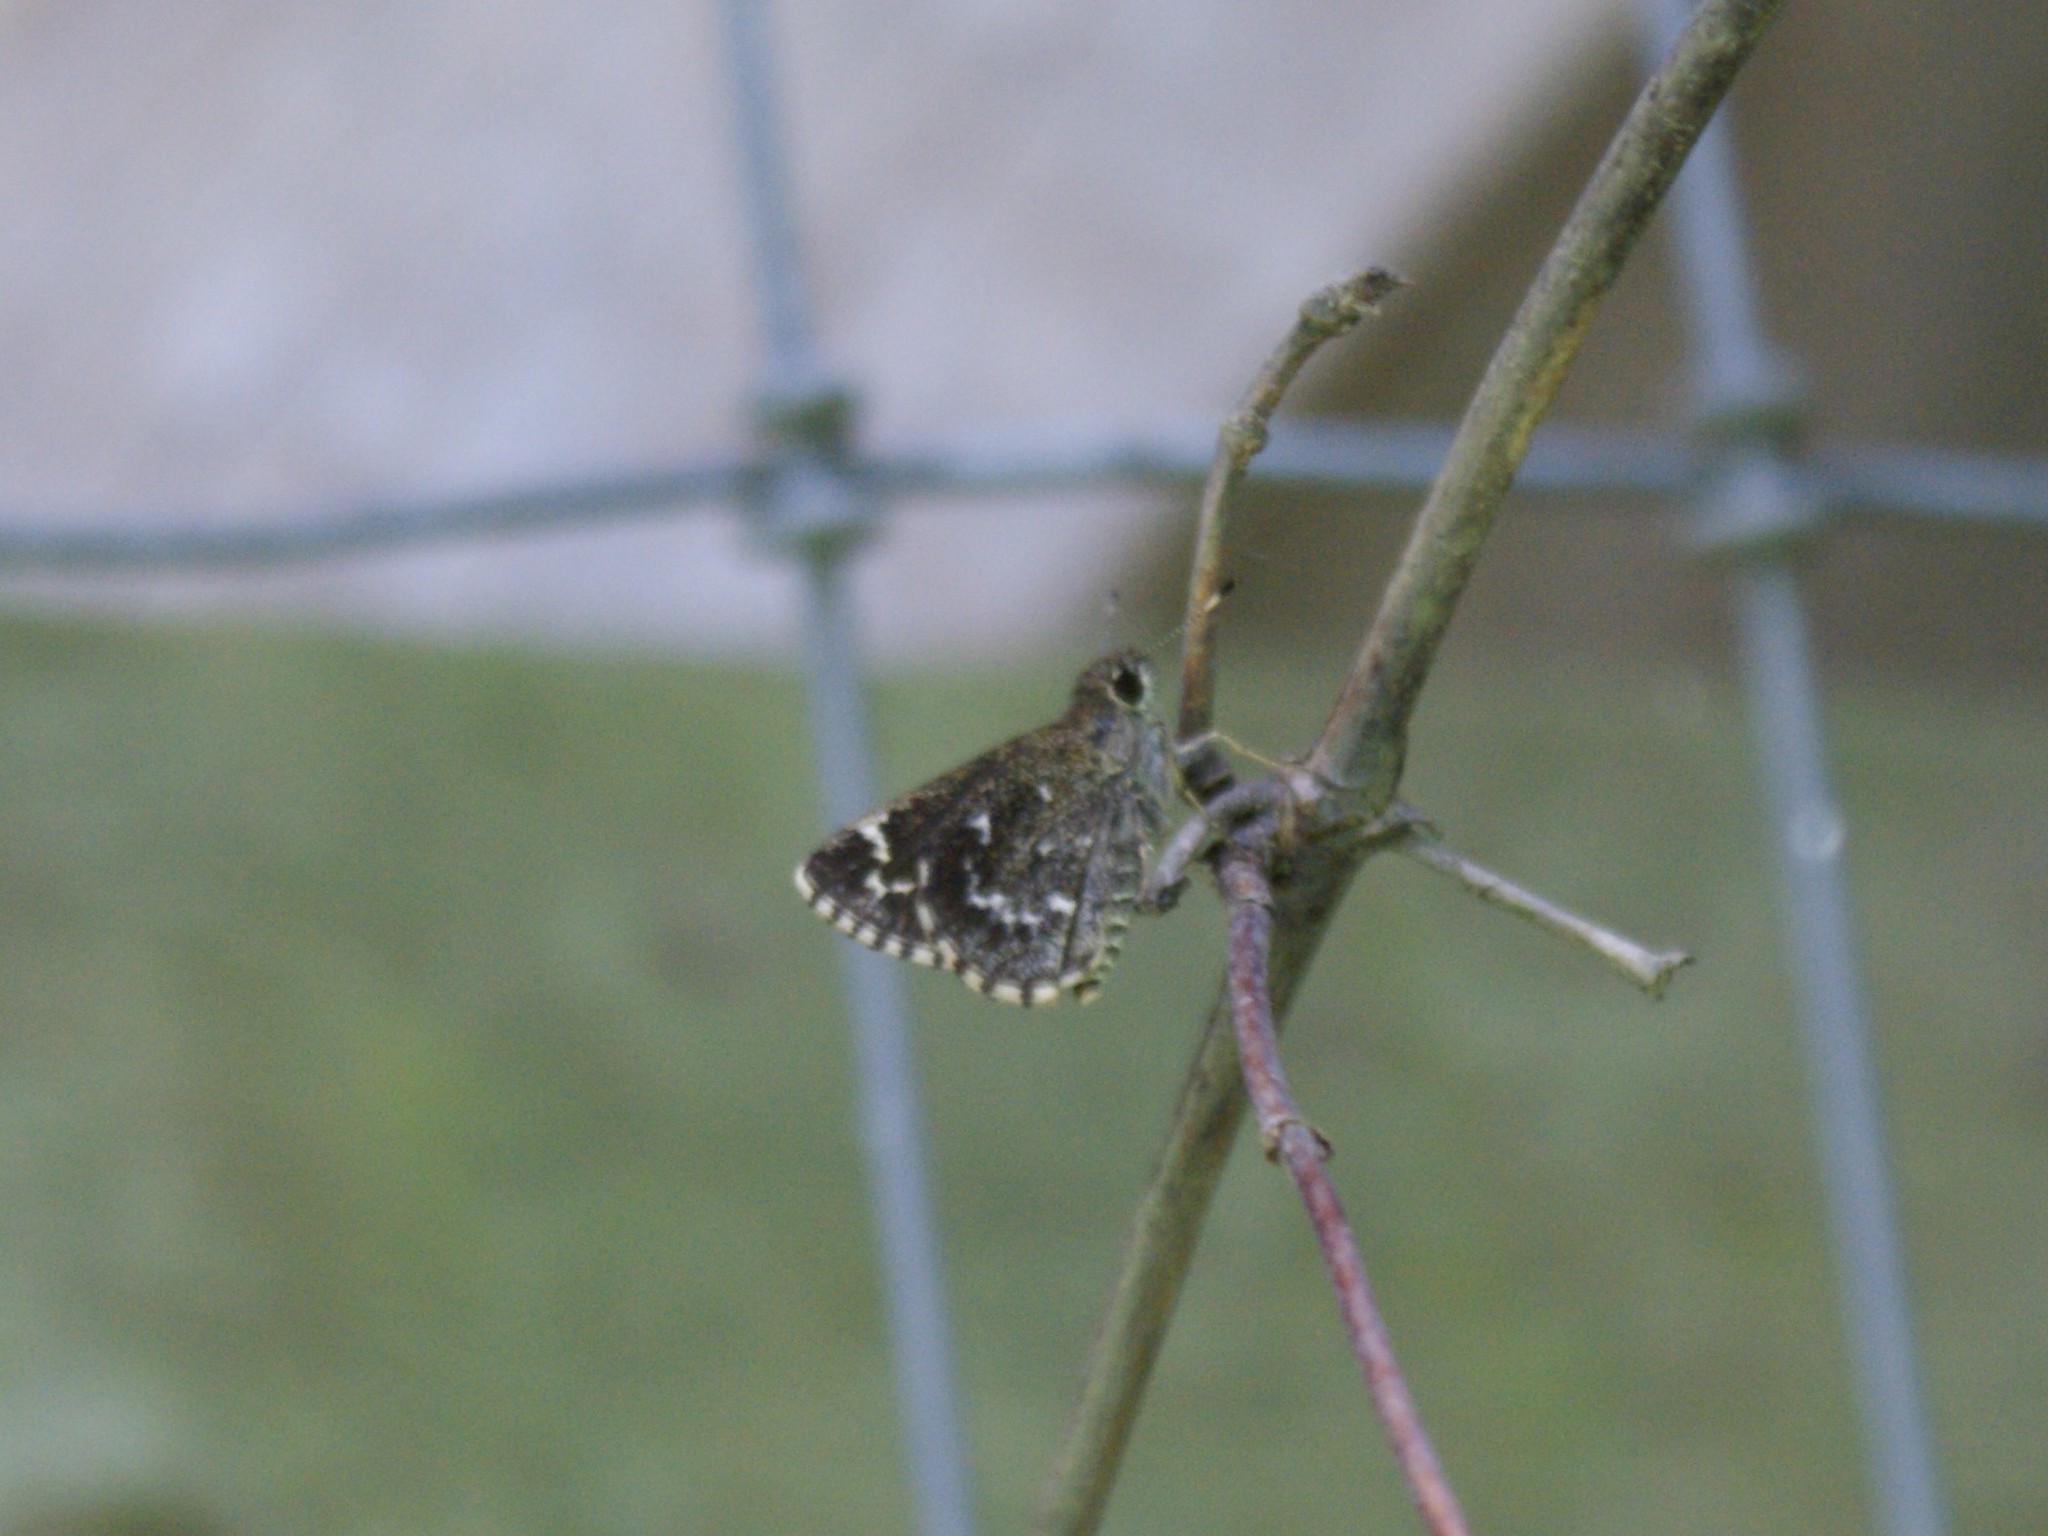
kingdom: Animalia
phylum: Arthropoda
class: Insecta
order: Lepidoptera
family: Hesperiidae
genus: Mastor
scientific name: Mastor celia
